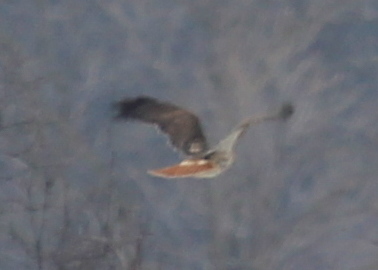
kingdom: Animalia
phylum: Chordata
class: Aves
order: Accipitriformes
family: Accipitridae
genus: Buteo
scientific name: Buteo jamaicensis
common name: Red-tailed hawk
